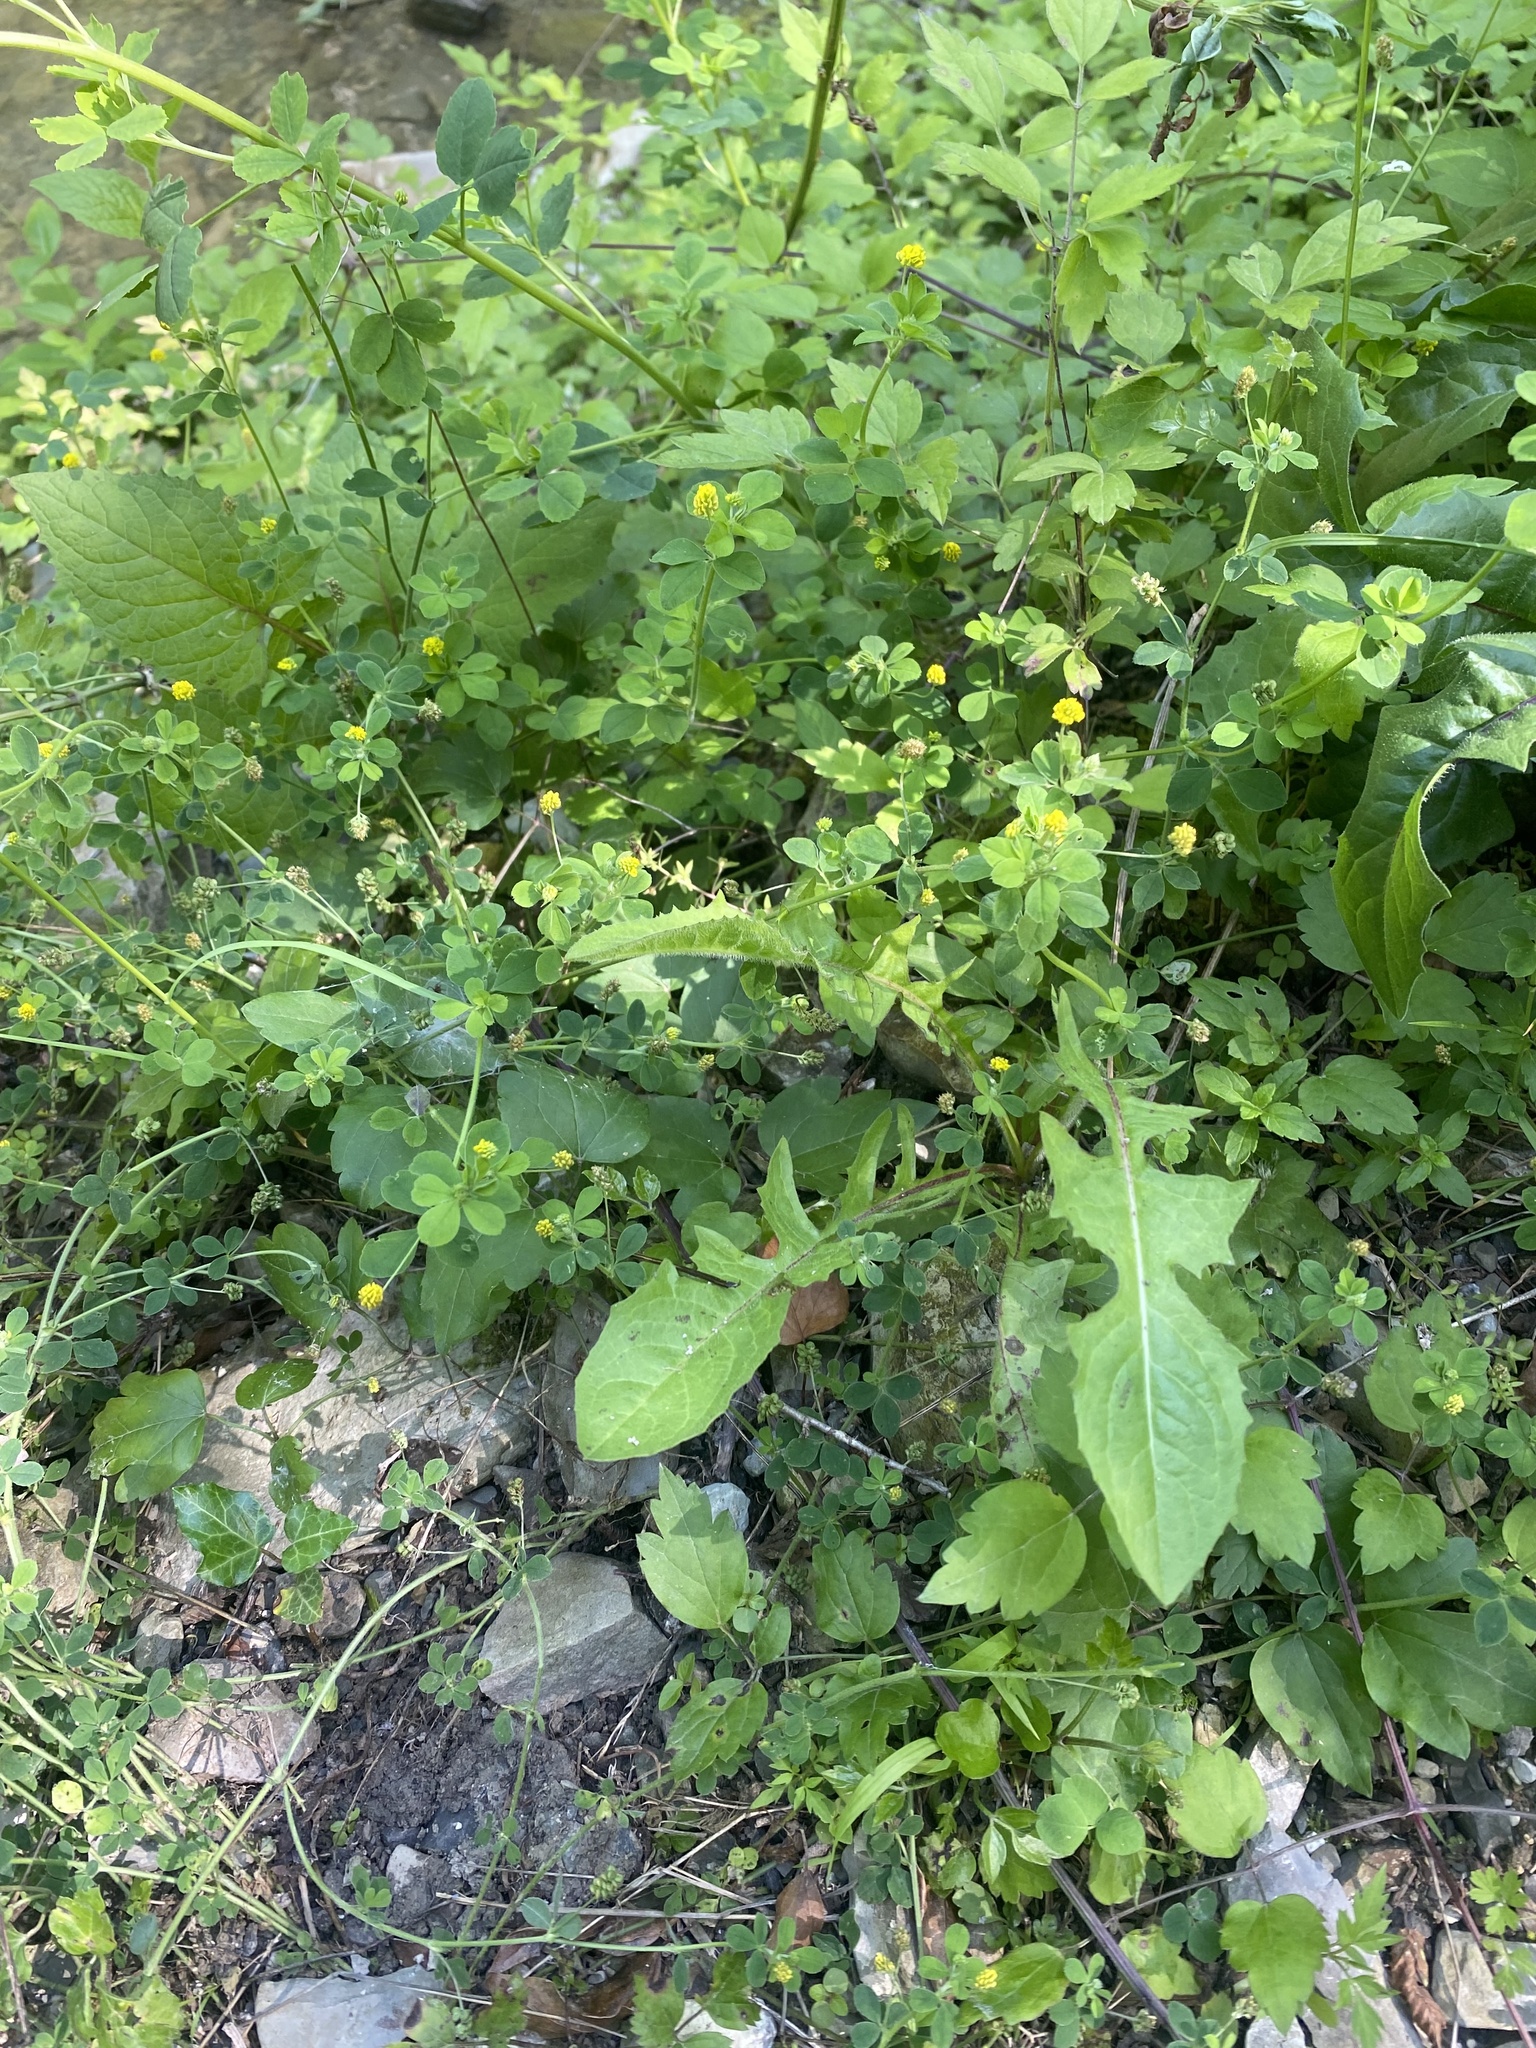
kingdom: Plantae
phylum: Tracheophyta
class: Magnoliopsida
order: Fabales
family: Fabaceae
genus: Medicago
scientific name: Medicago lupulina
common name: Black medick
